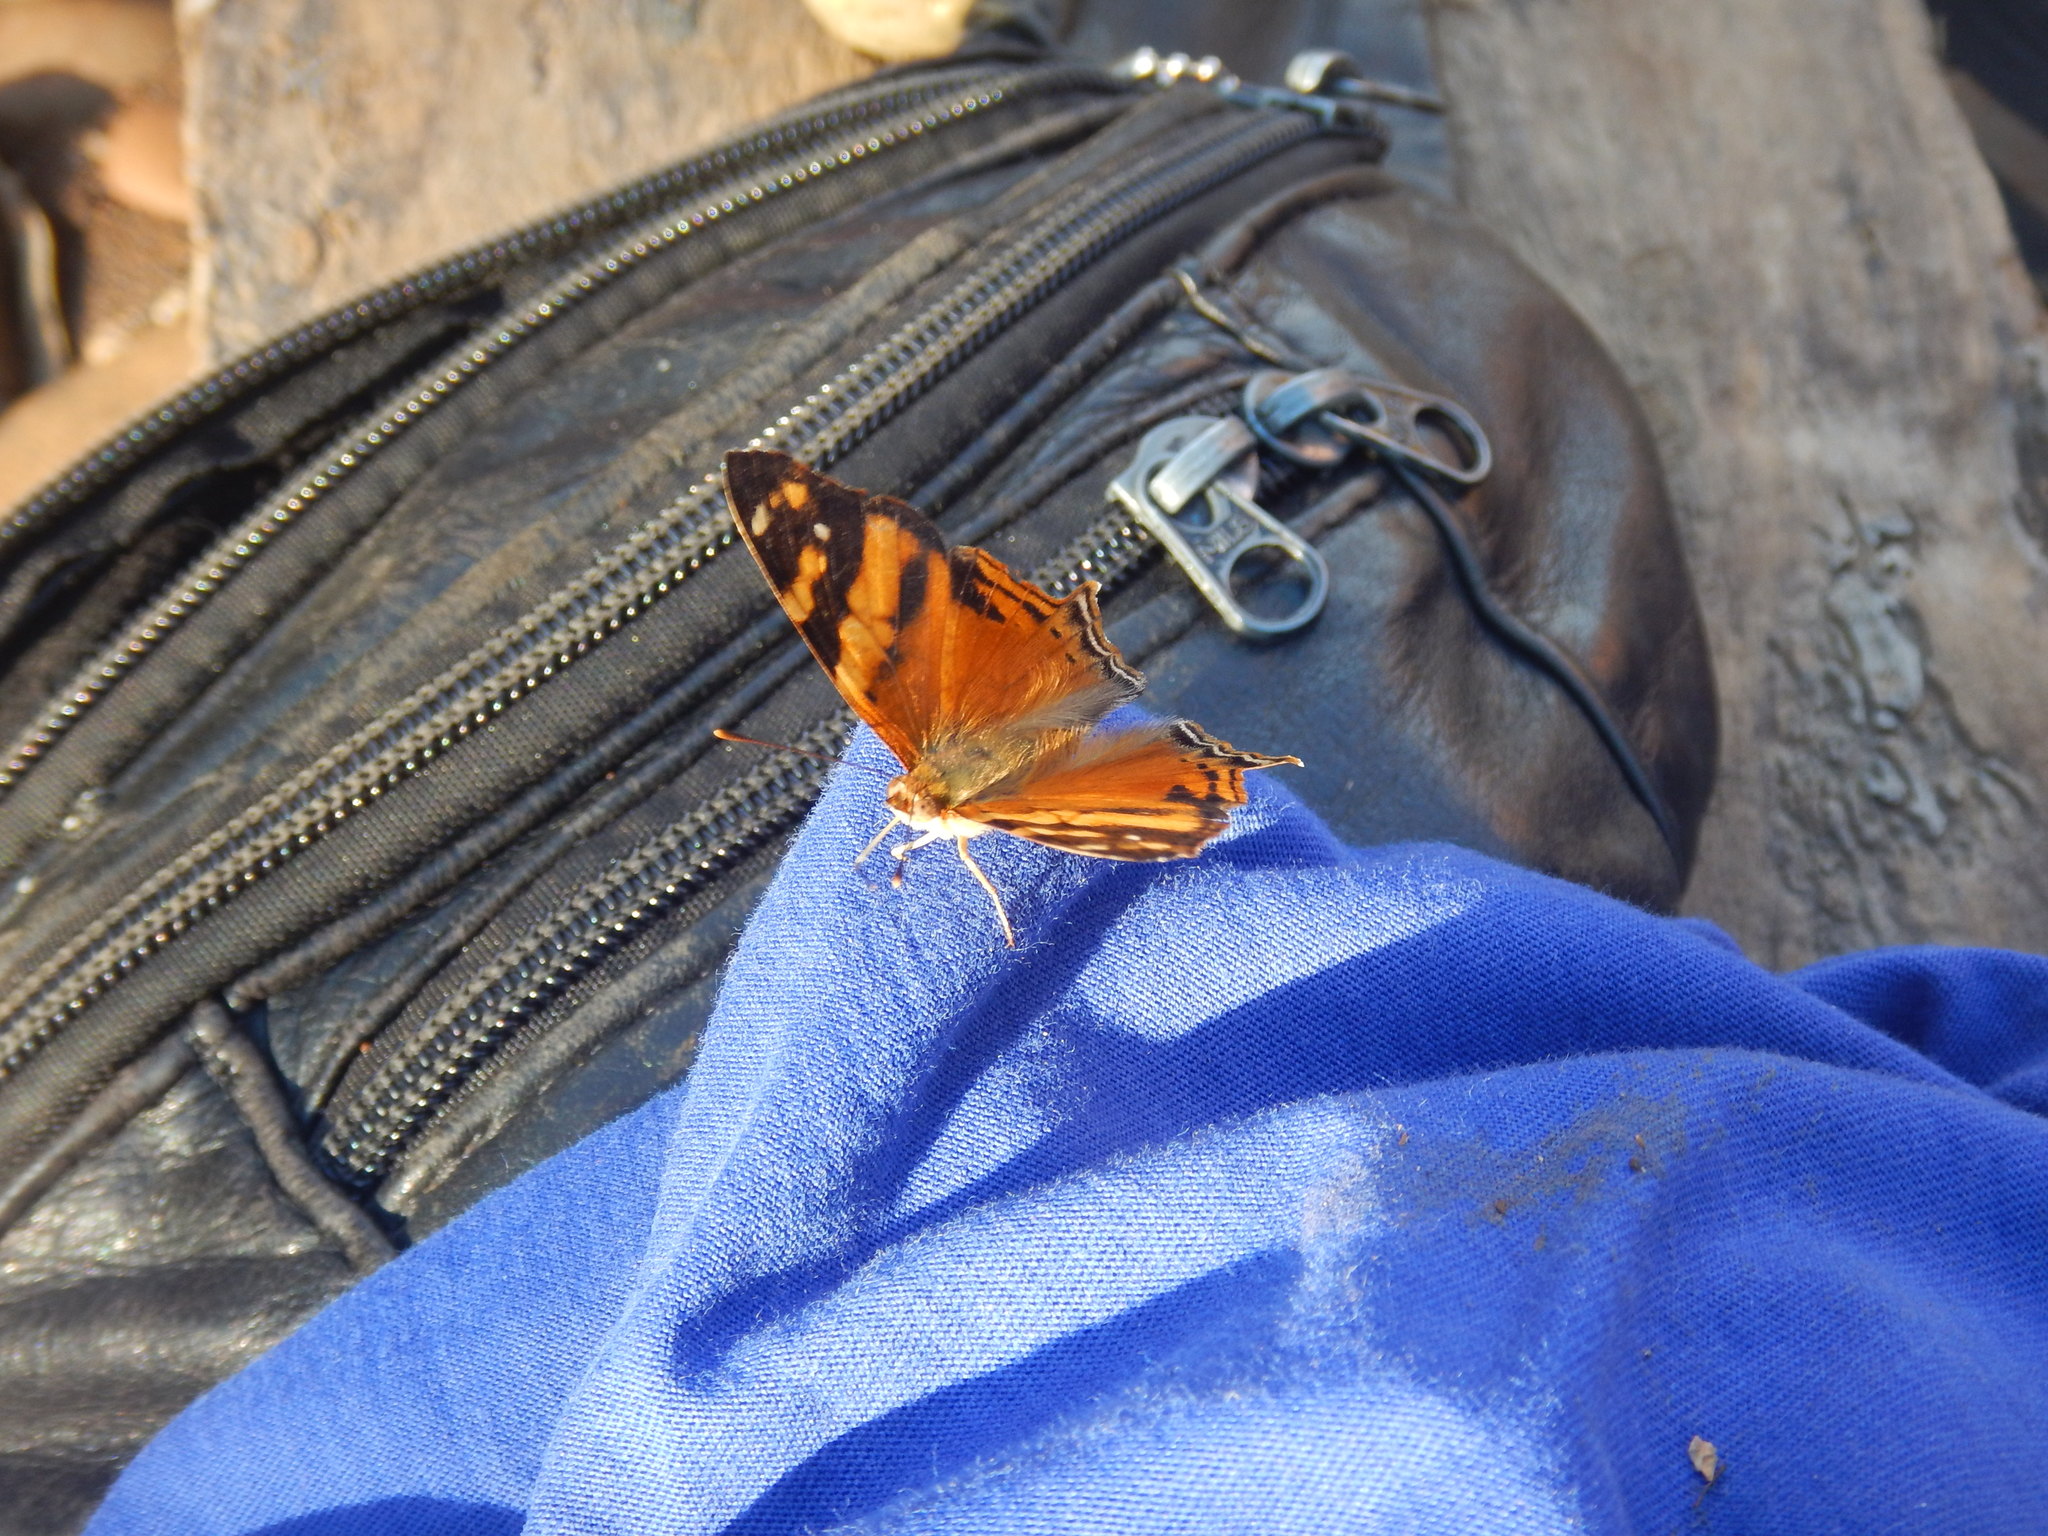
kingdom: Animalia
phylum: Arthropoda
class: Insecta
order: Lepidoptera
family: Nymphalidae
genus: Hypanartia
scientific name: Hypanartia lethe
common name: Orange mapwing
